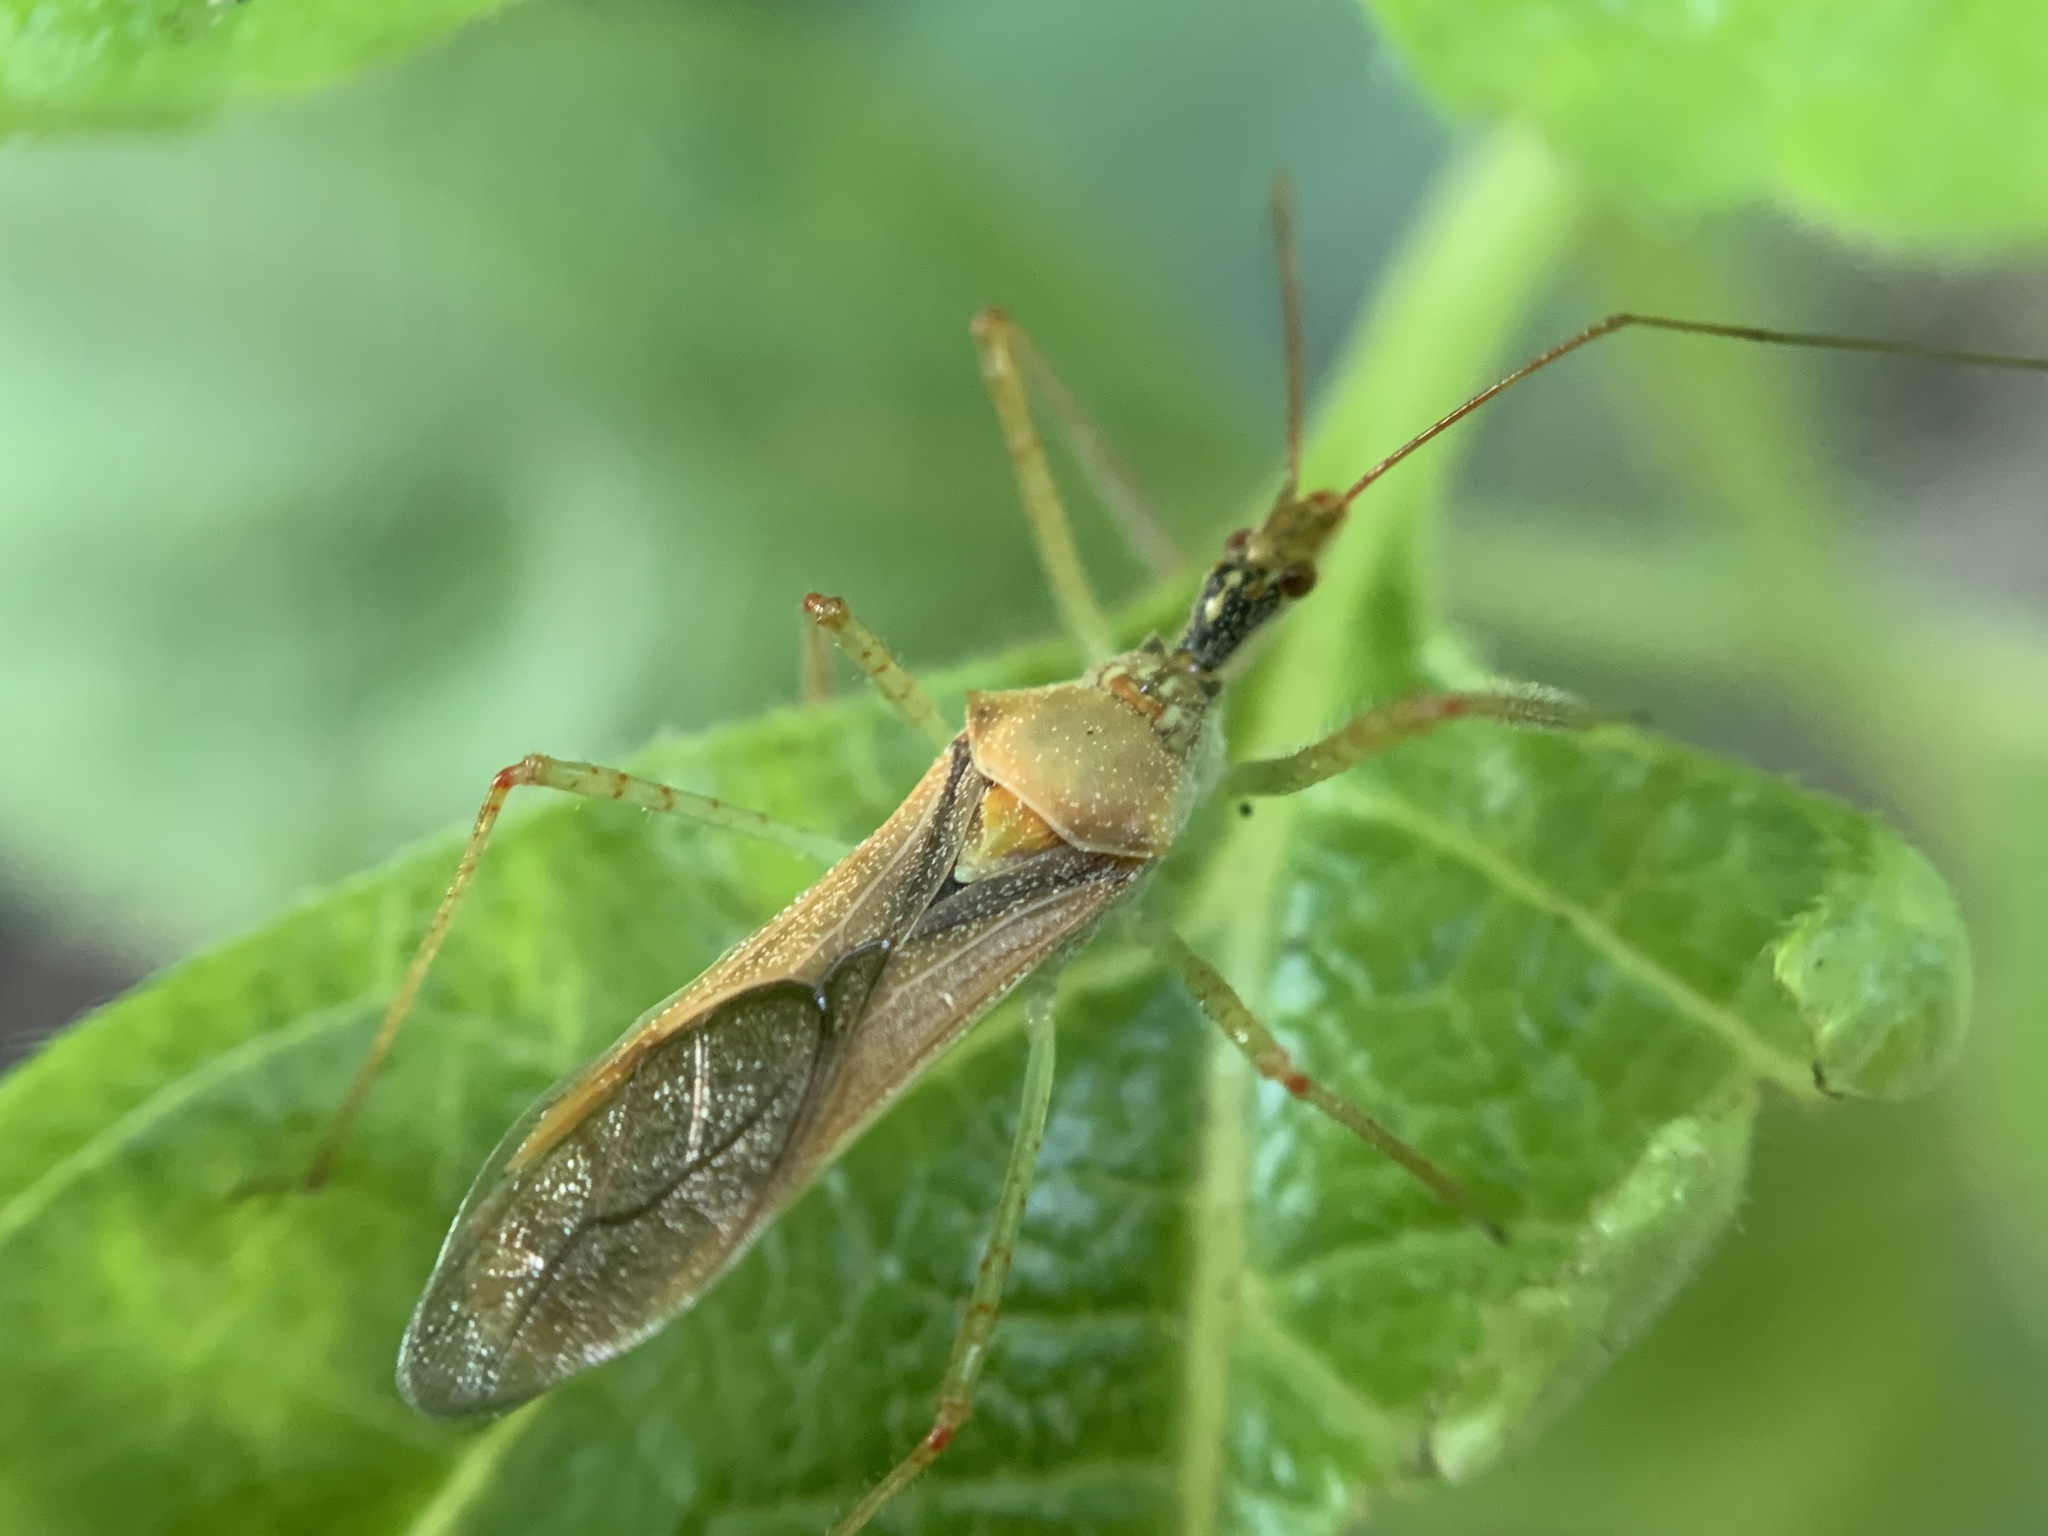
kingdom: Animalia
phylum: Arthropoda
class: Insecta
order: Hemiptera
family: Reduviidae
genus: Zelus
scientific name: Zelus renardii
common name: Assassin bug
